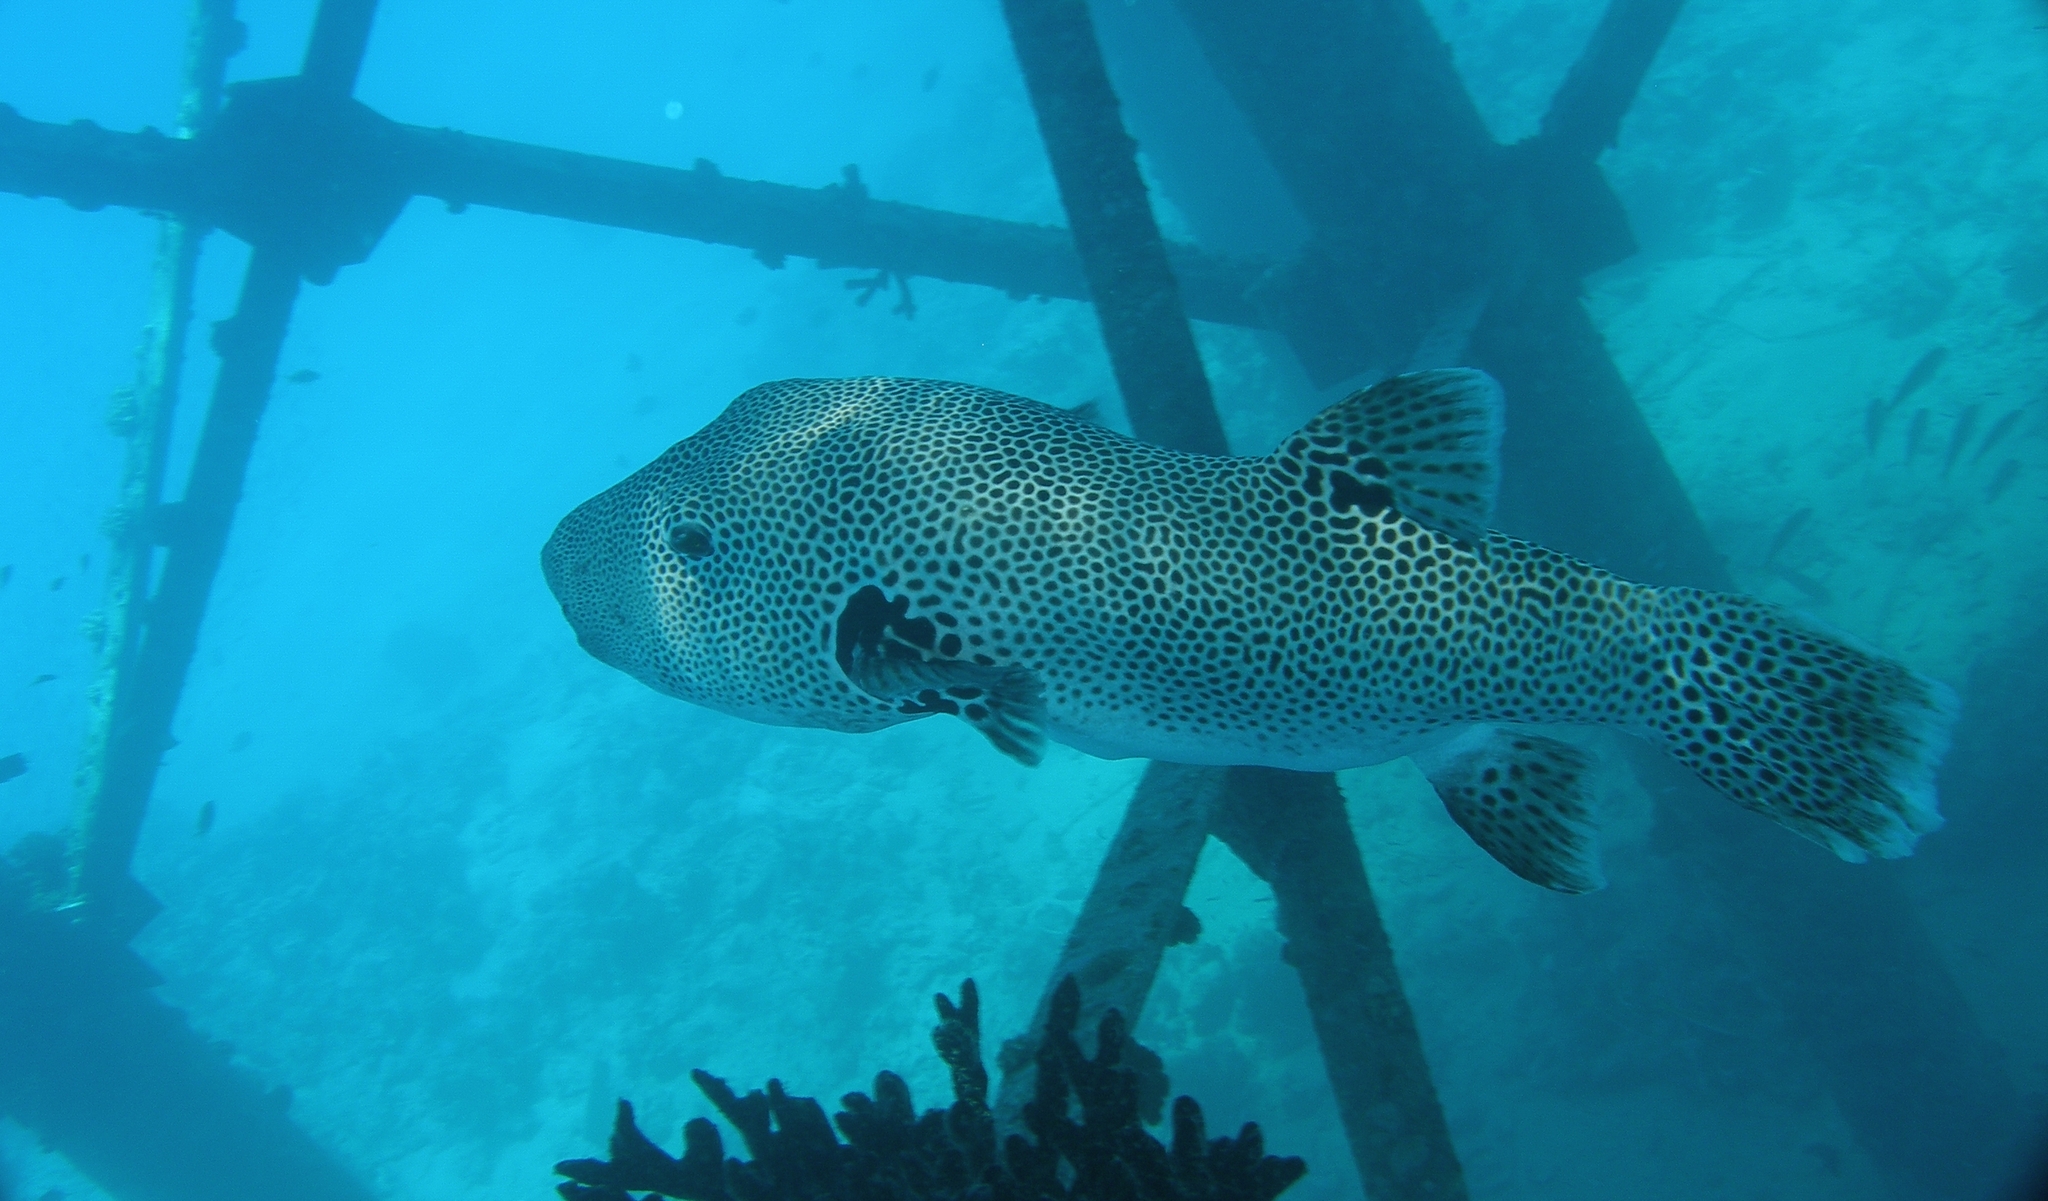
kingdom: Animalia
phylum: Chordata
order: Tetraodontiformes
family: Tetraodontidae
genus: Arothron
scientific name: Arothron stellatus
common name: Star blaasop
